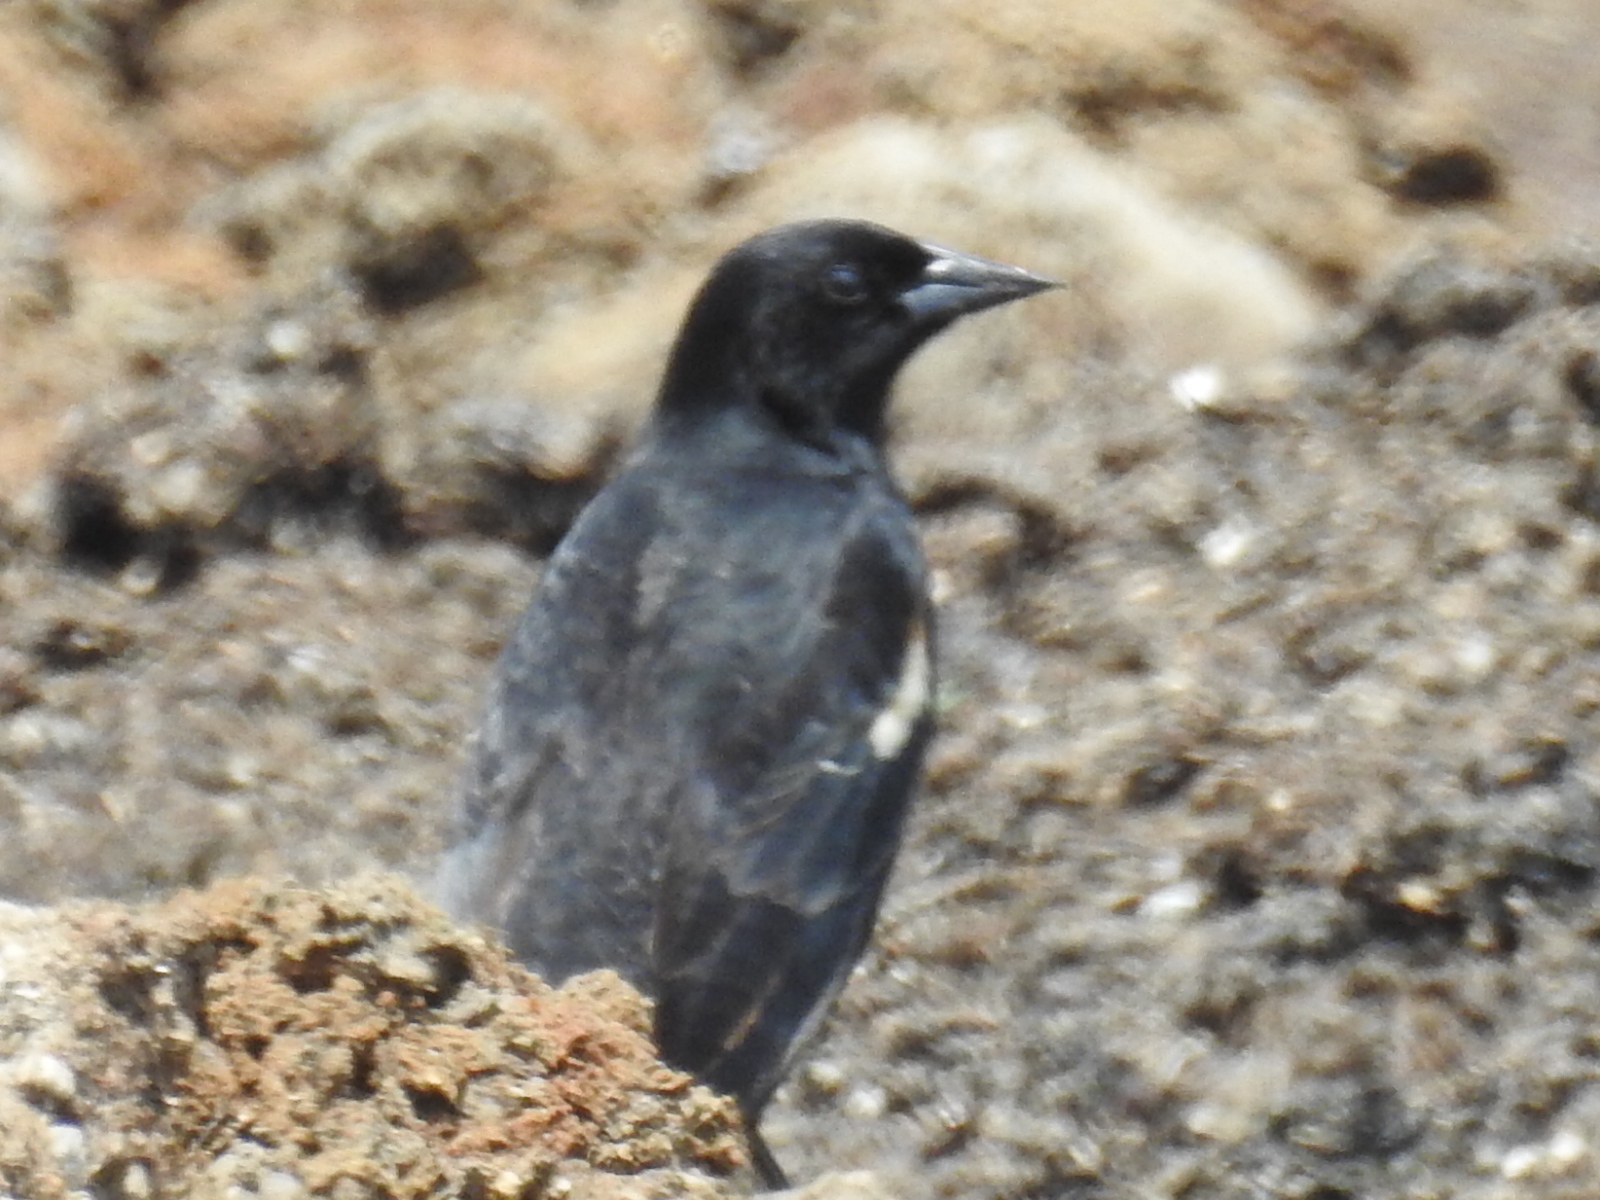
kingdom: Animalia
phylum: Chordata
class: Aves
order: Passeriformes
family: Icteridae
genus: Agelaius
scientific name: Agelaius phoeniceus
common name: Red-winged blackbird
